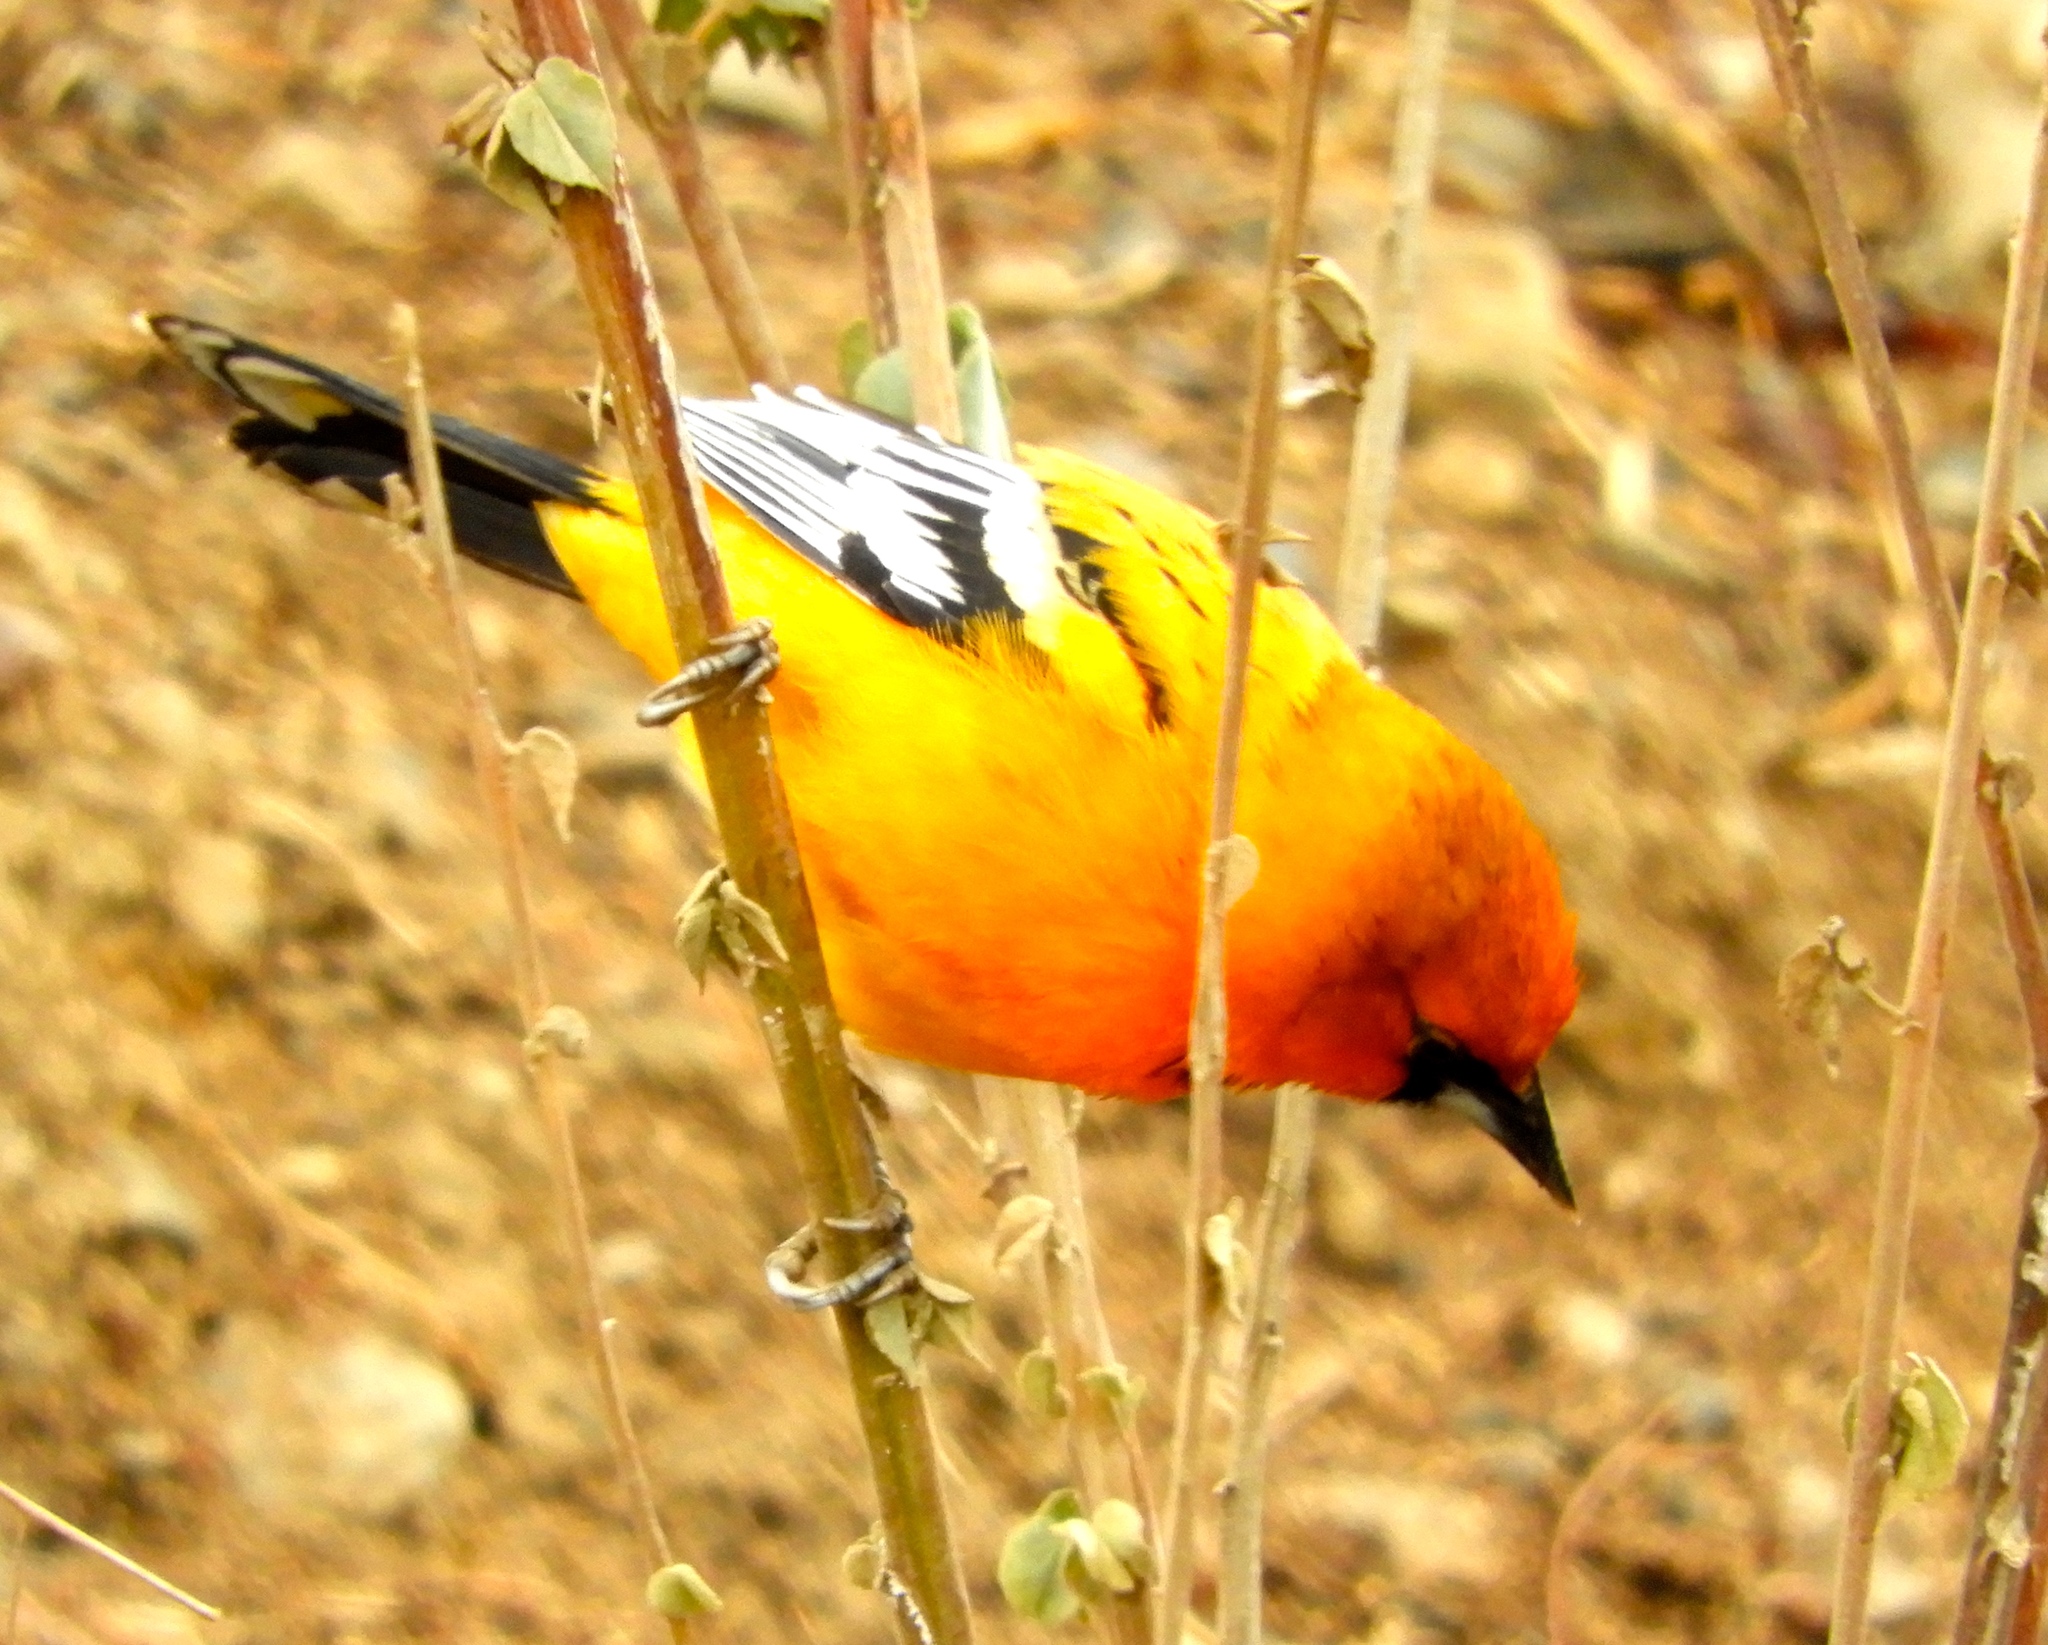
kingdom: Animalia
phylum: Chordata
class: Aves
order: Passeriformes
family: Icteridae
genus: Icterus
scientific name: Icterus pustulatus
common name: Streak-backed oriole
